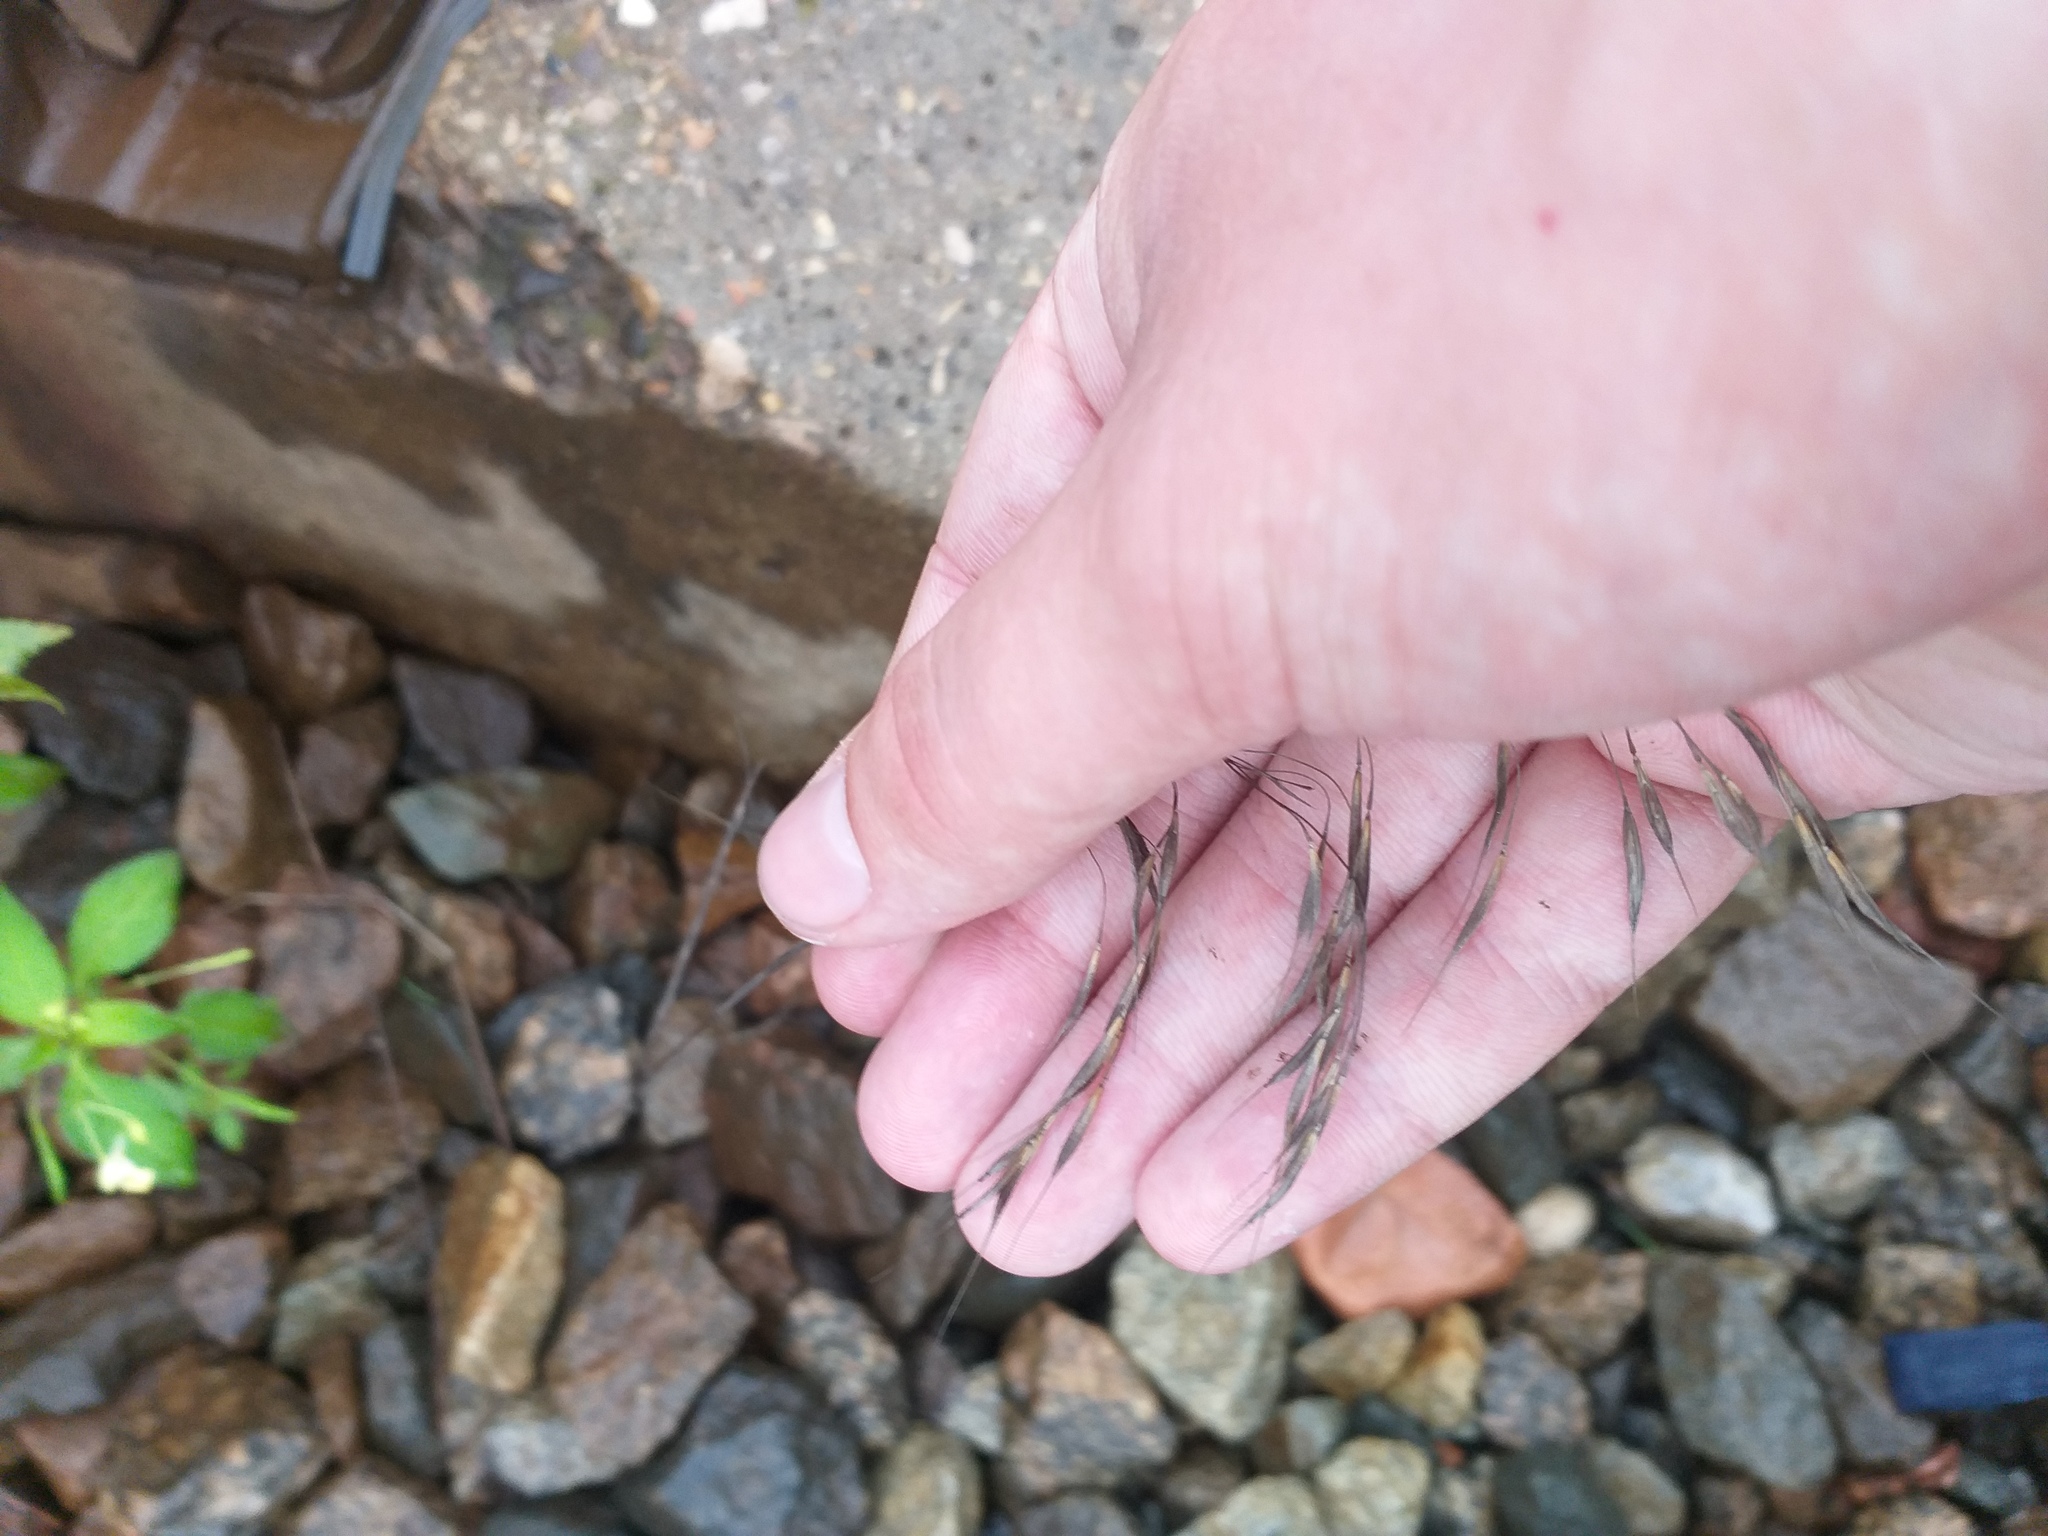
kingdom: Plantae
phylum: Tracheophyta
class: Liliopsida
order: Poales
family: Poaceae
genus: Bromus
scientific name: Bromus tectorum
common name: Cheatgrass
